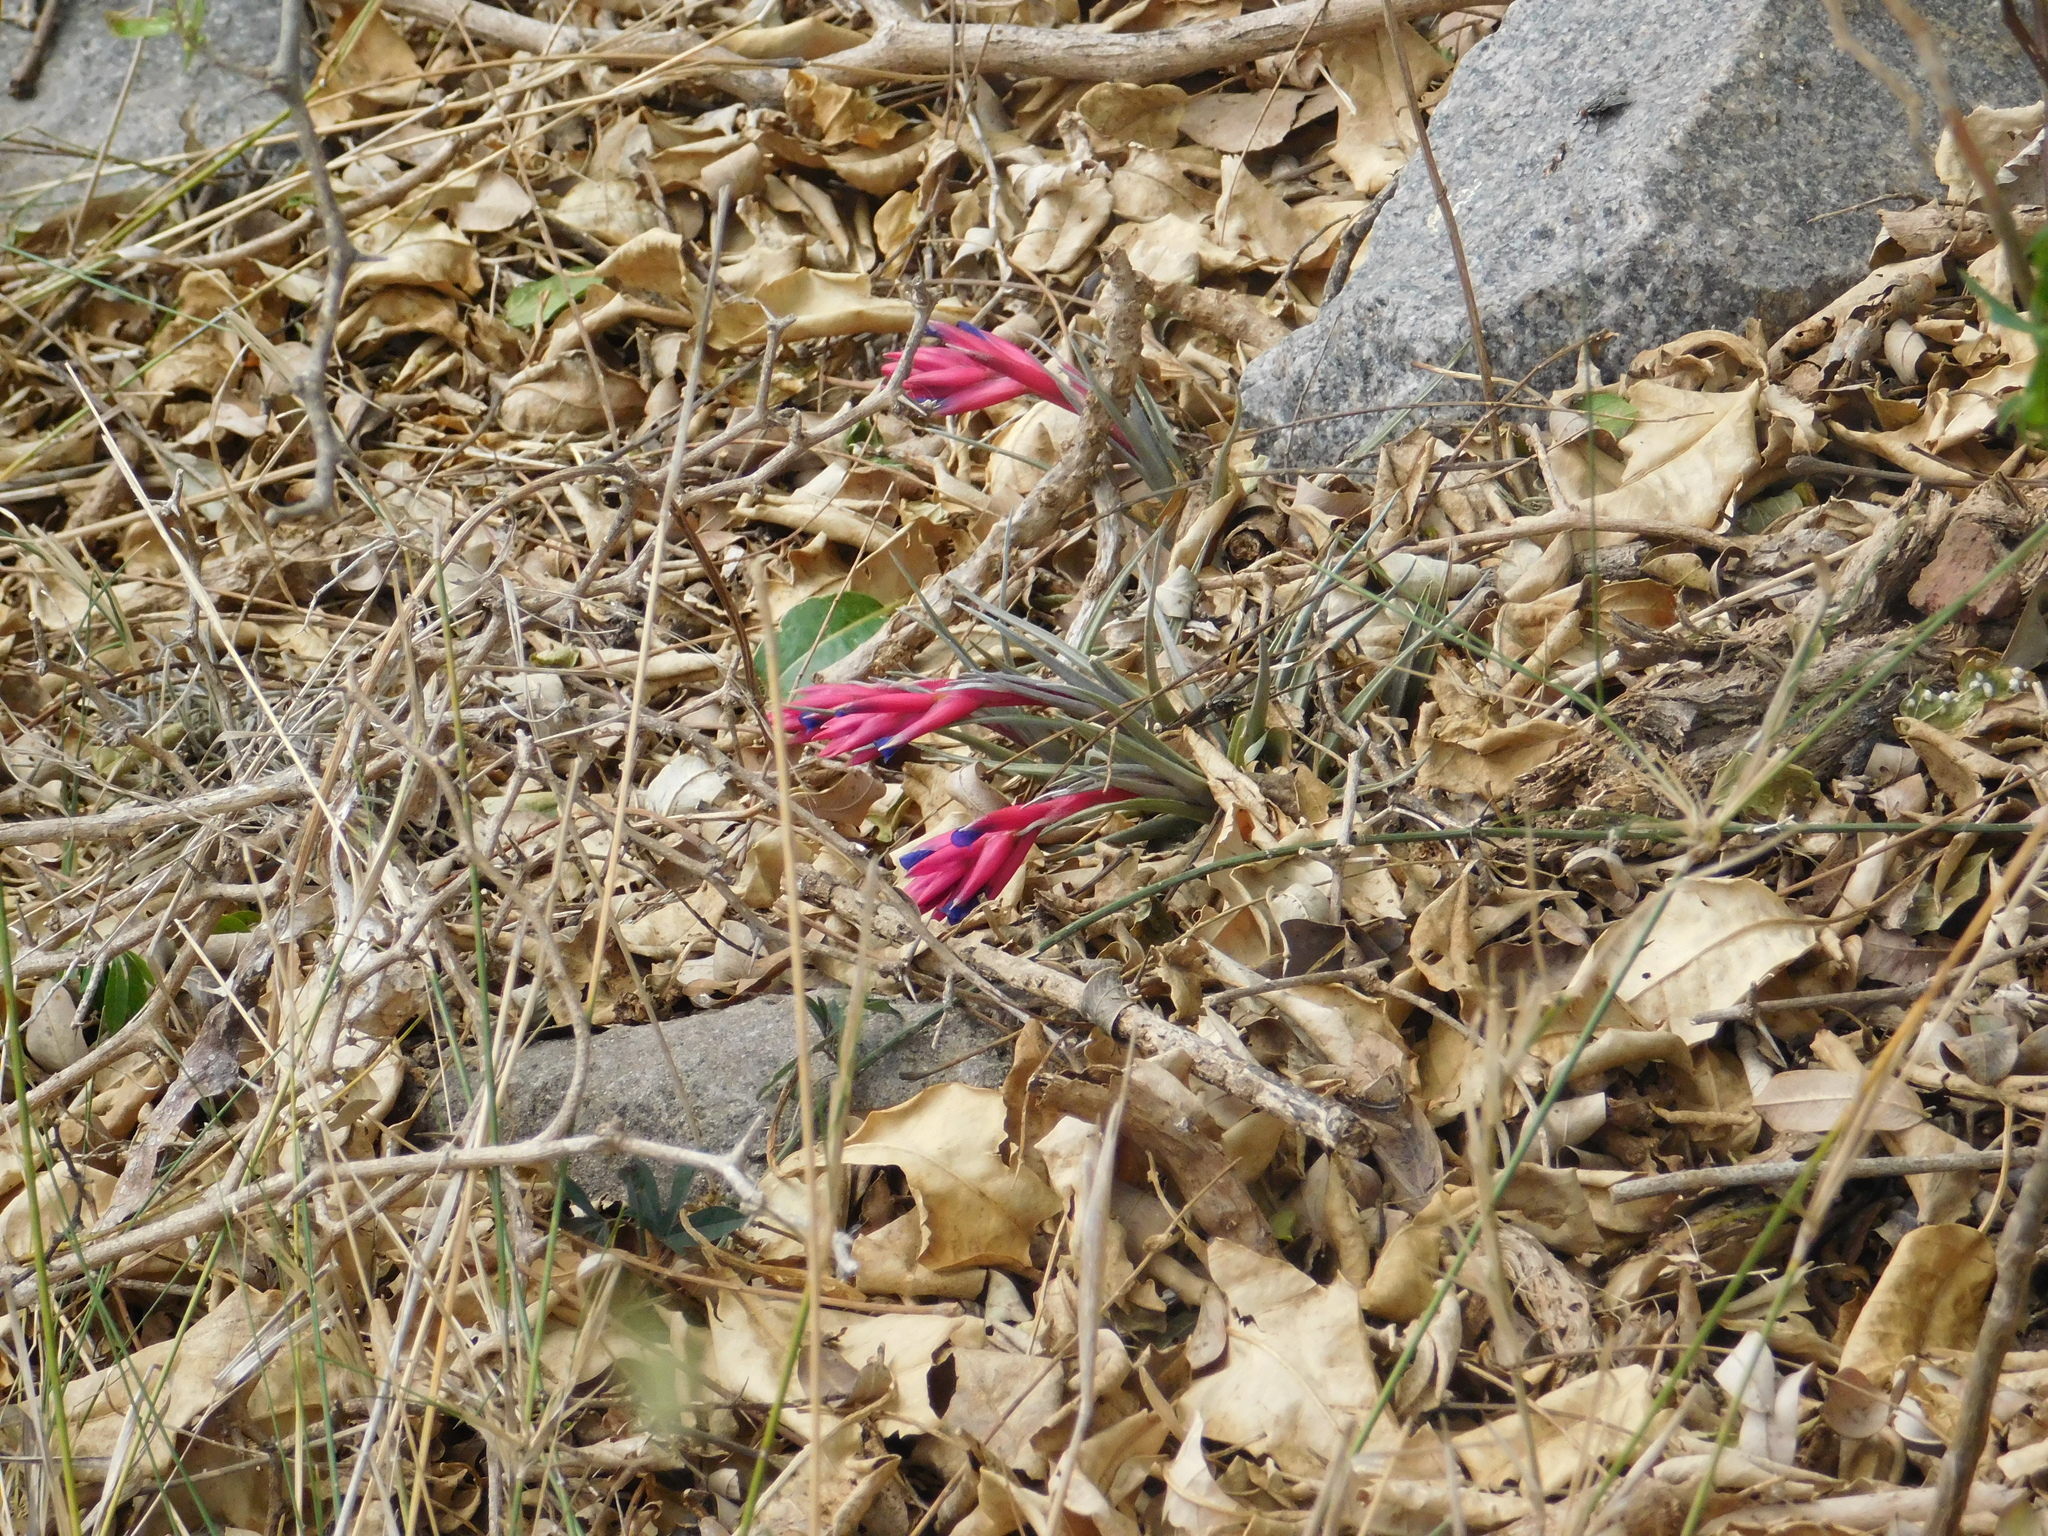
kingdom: Plantae
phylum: Tracheophyta
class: Liliopsida
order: Poales
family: Bromeliaceae
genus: Tillandsia
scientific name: Tillandsia aeranthos
